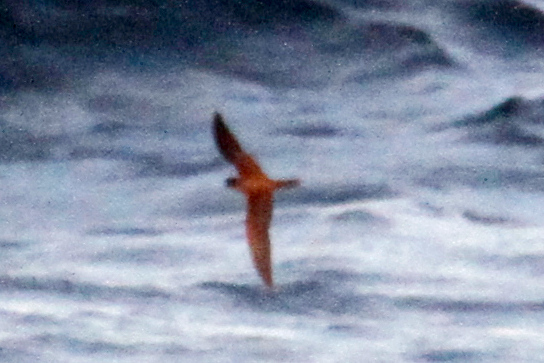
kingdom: Animalia
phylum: Chordata
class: Aves
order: Procellariiformes
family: Hydrobatidae
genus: Hydrobates
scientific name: Hydrobates melania
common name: Black storm petrel
